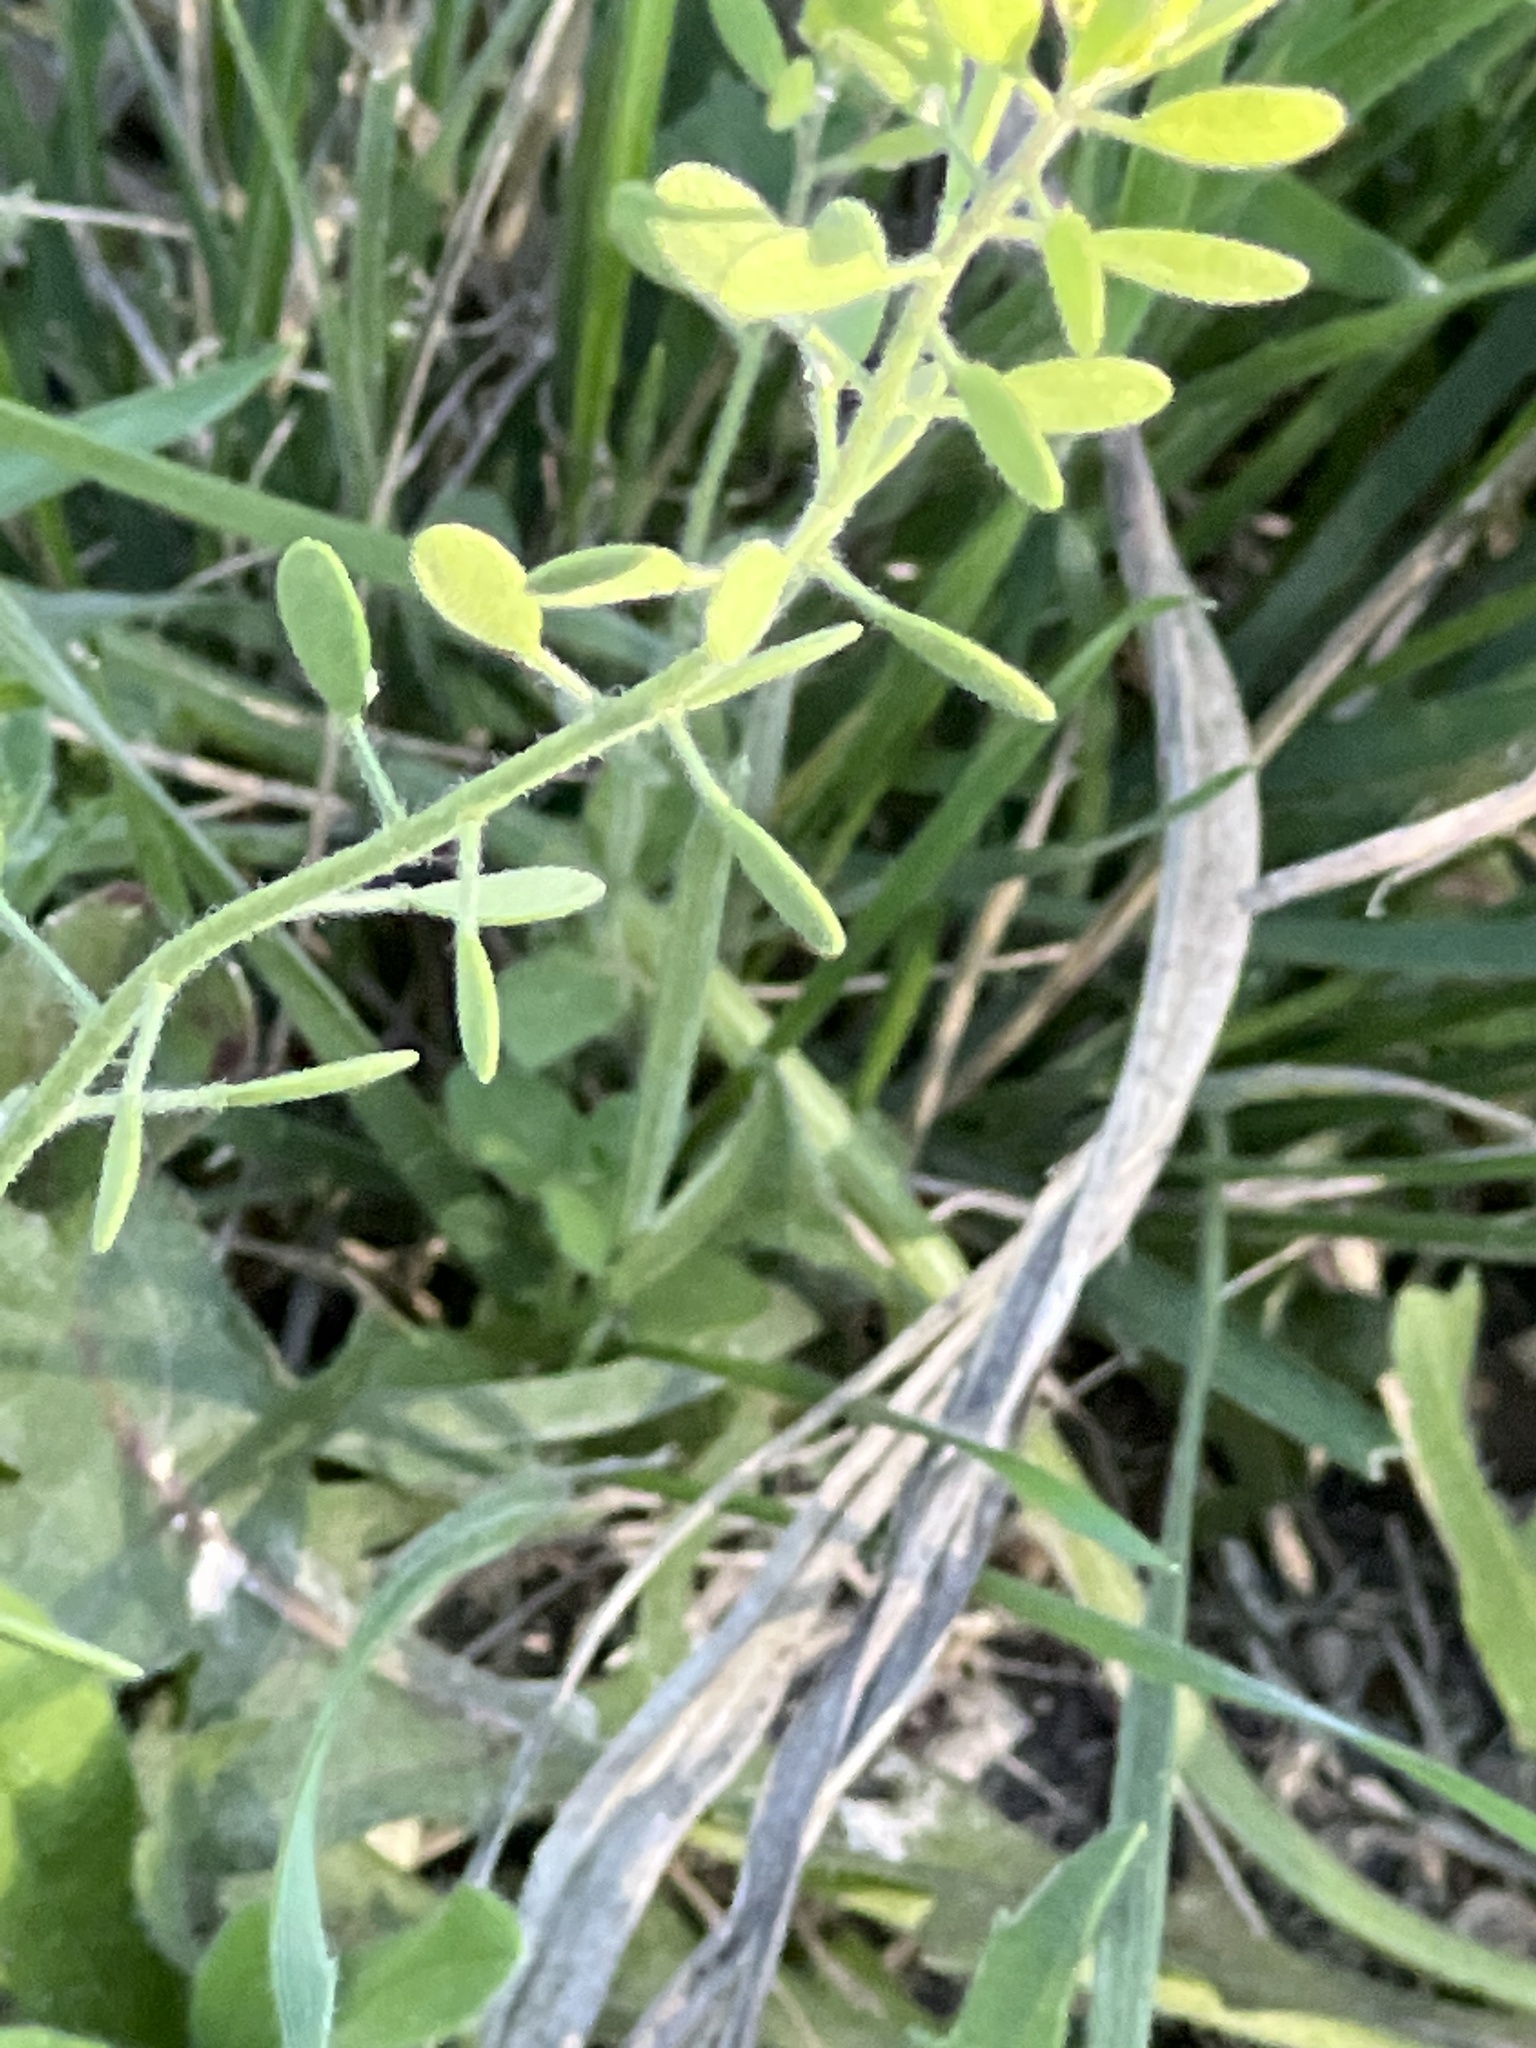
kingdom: Plantae
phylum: Tracheophyta
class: Magnoliopsida
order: Brassicales
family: Brassicaceae
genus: Tomostima
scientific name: Tomostima platycarpa
